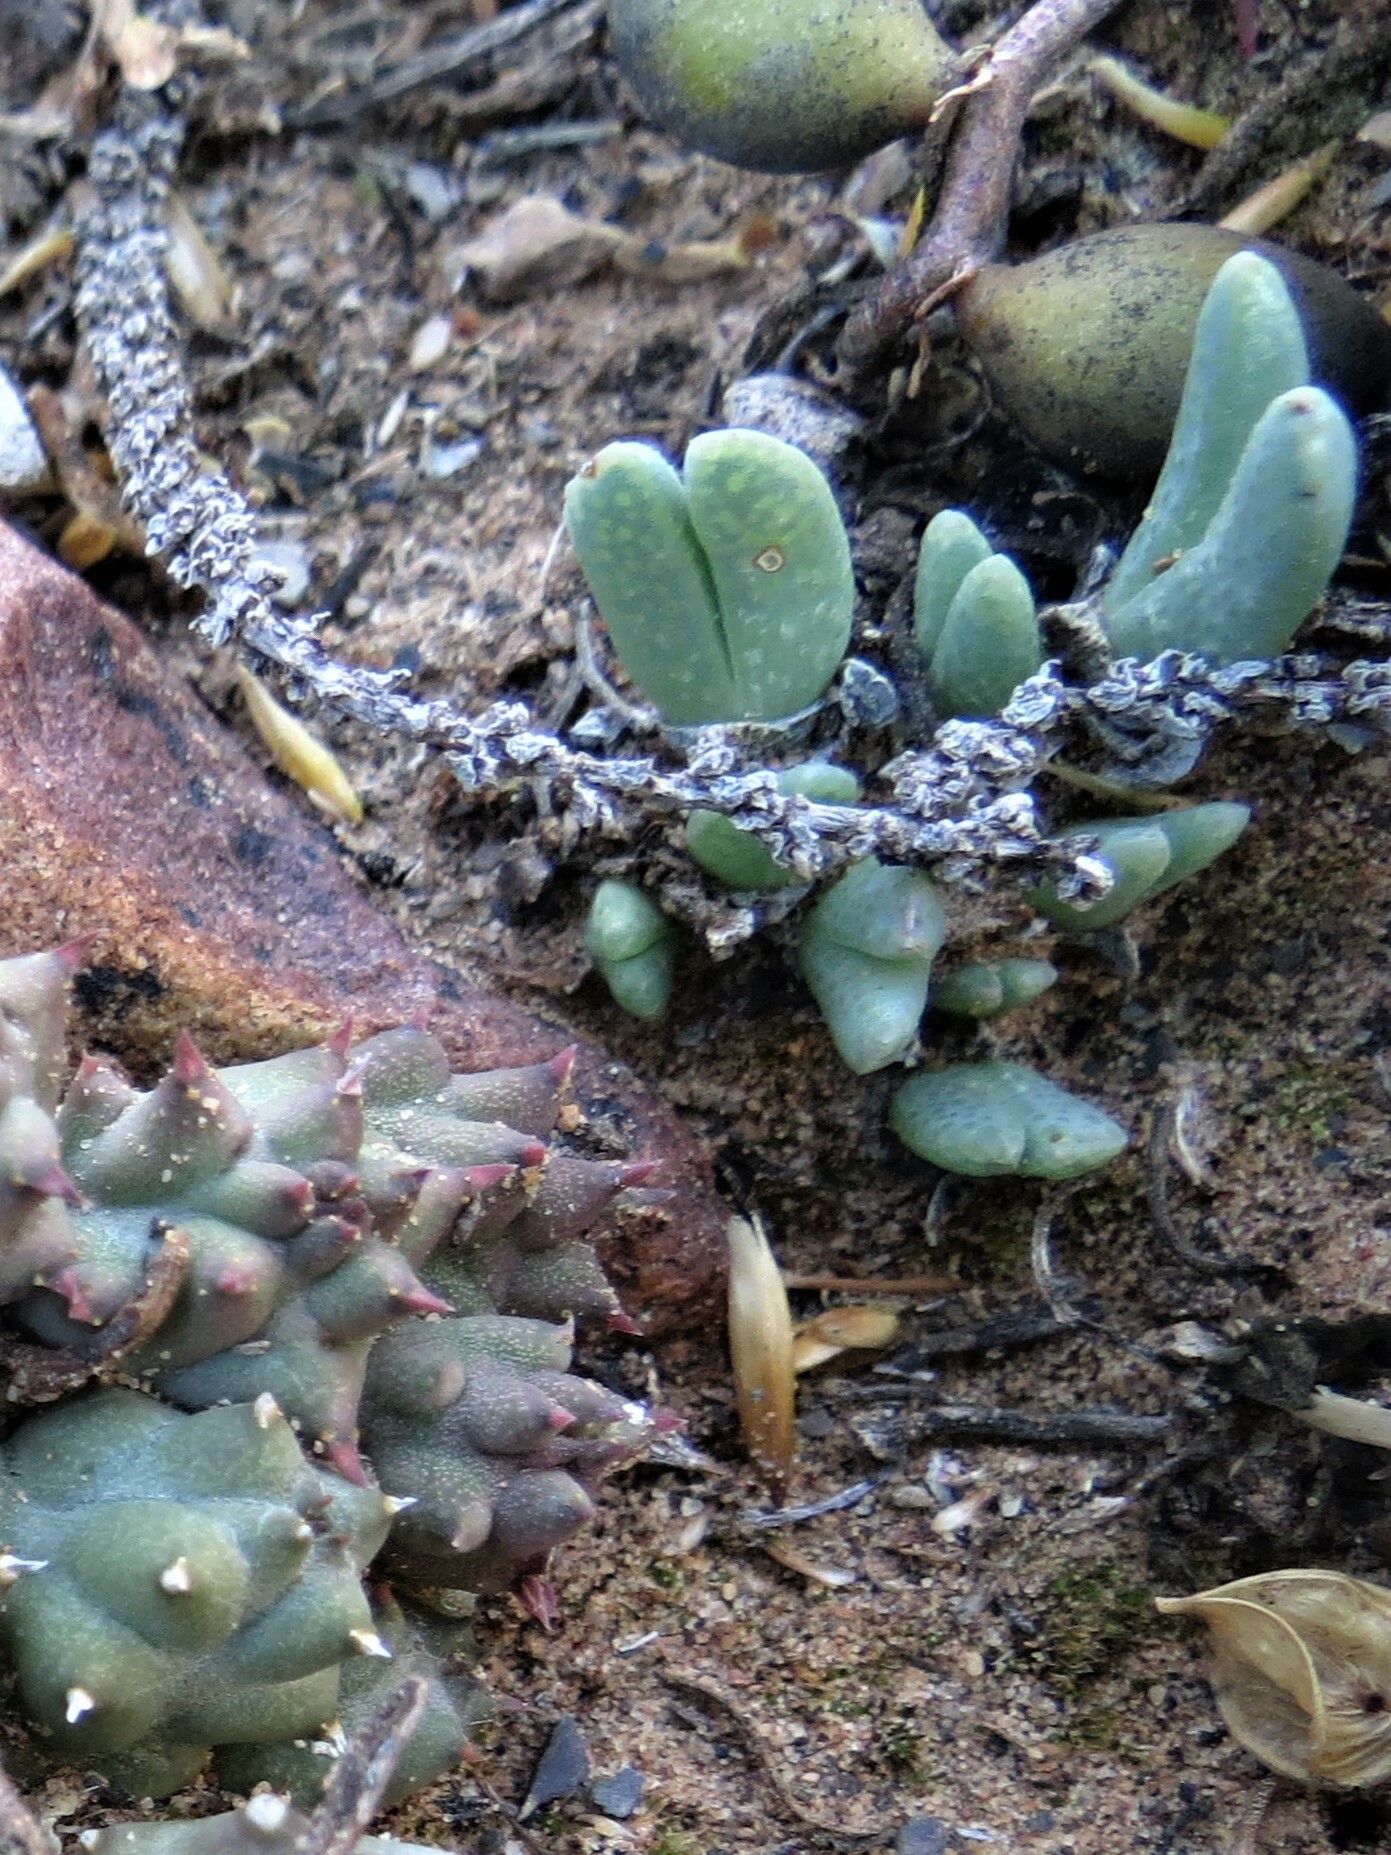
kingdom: Plantae
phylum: Tracheophyta
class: Magnoliopsida
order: Caryophyllales
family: Aizoaceae
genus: Antimima
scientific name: Antimima piscodora
